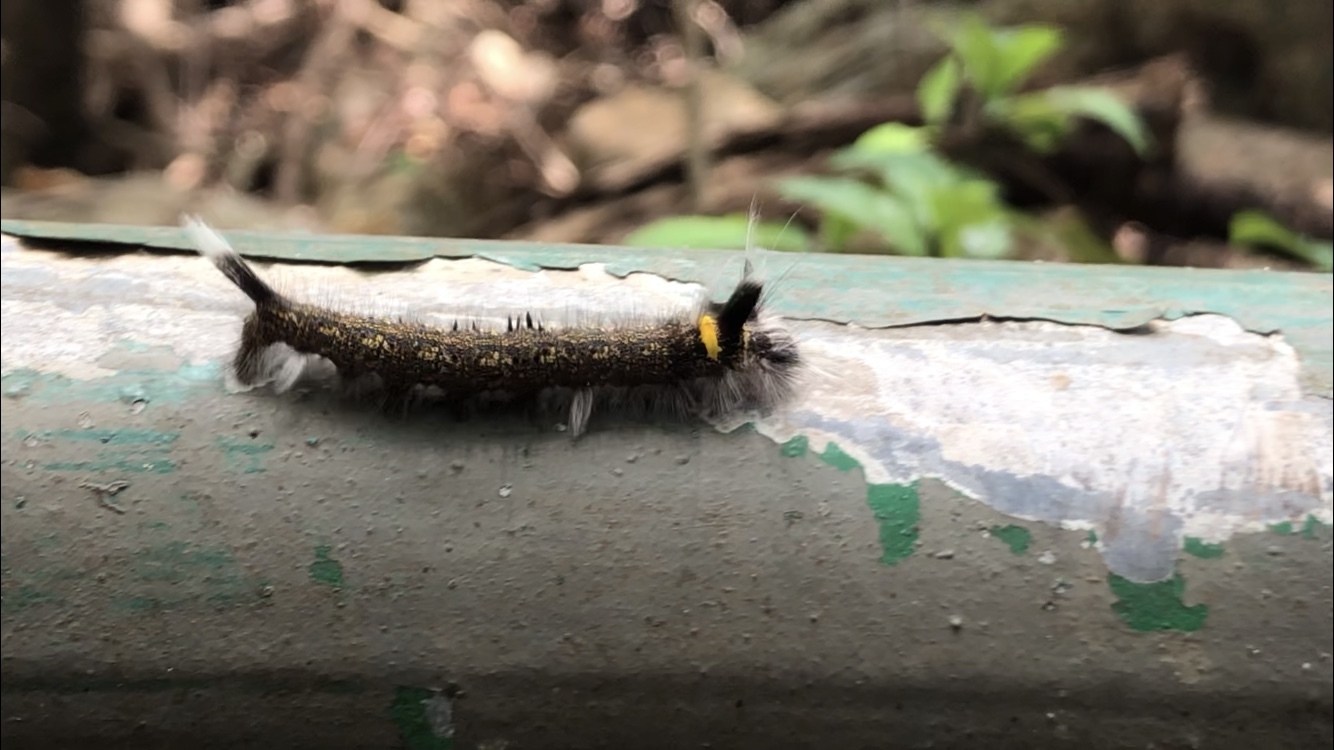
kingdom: Animalia
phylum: Arthropoda
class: Insecta
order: Lepidoptera
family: Lasiocampidae
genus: Euthrix
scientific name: Euthrix isocyma
